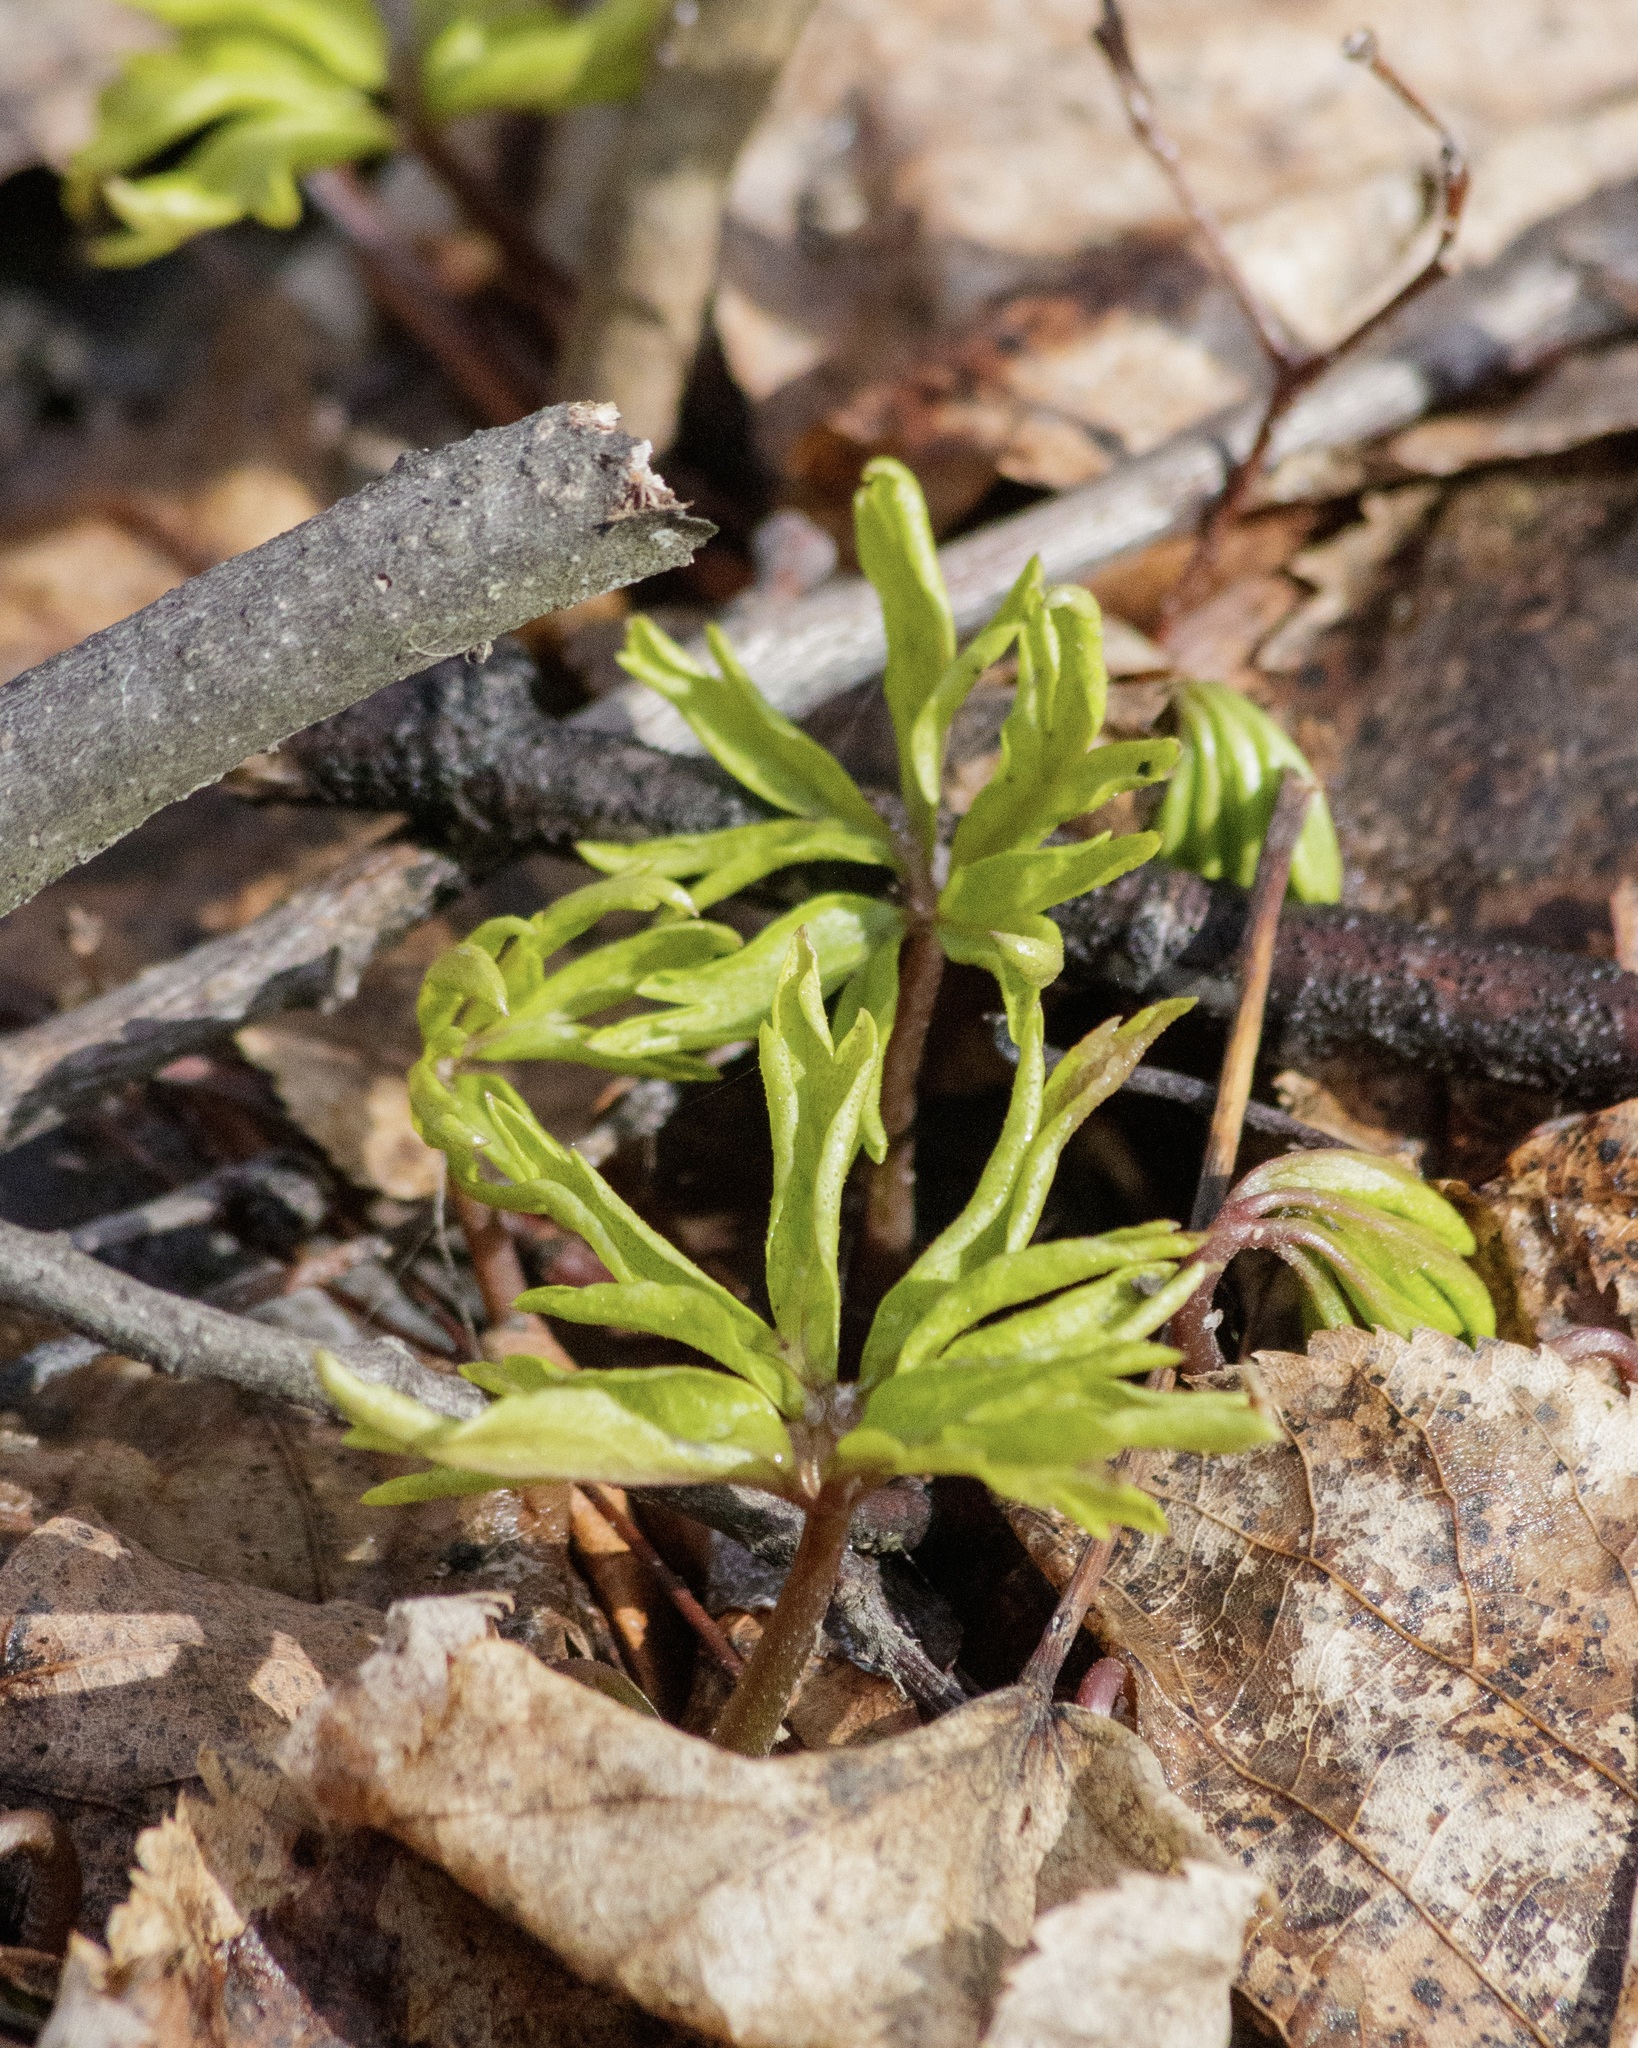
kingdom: Plantae
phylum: Tracheophyta
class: Magnoliopsida
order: Ranunculales
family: Ranunculaceae
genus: Anemone
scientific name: Anemone ranunculoides
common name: Yellow anemone
